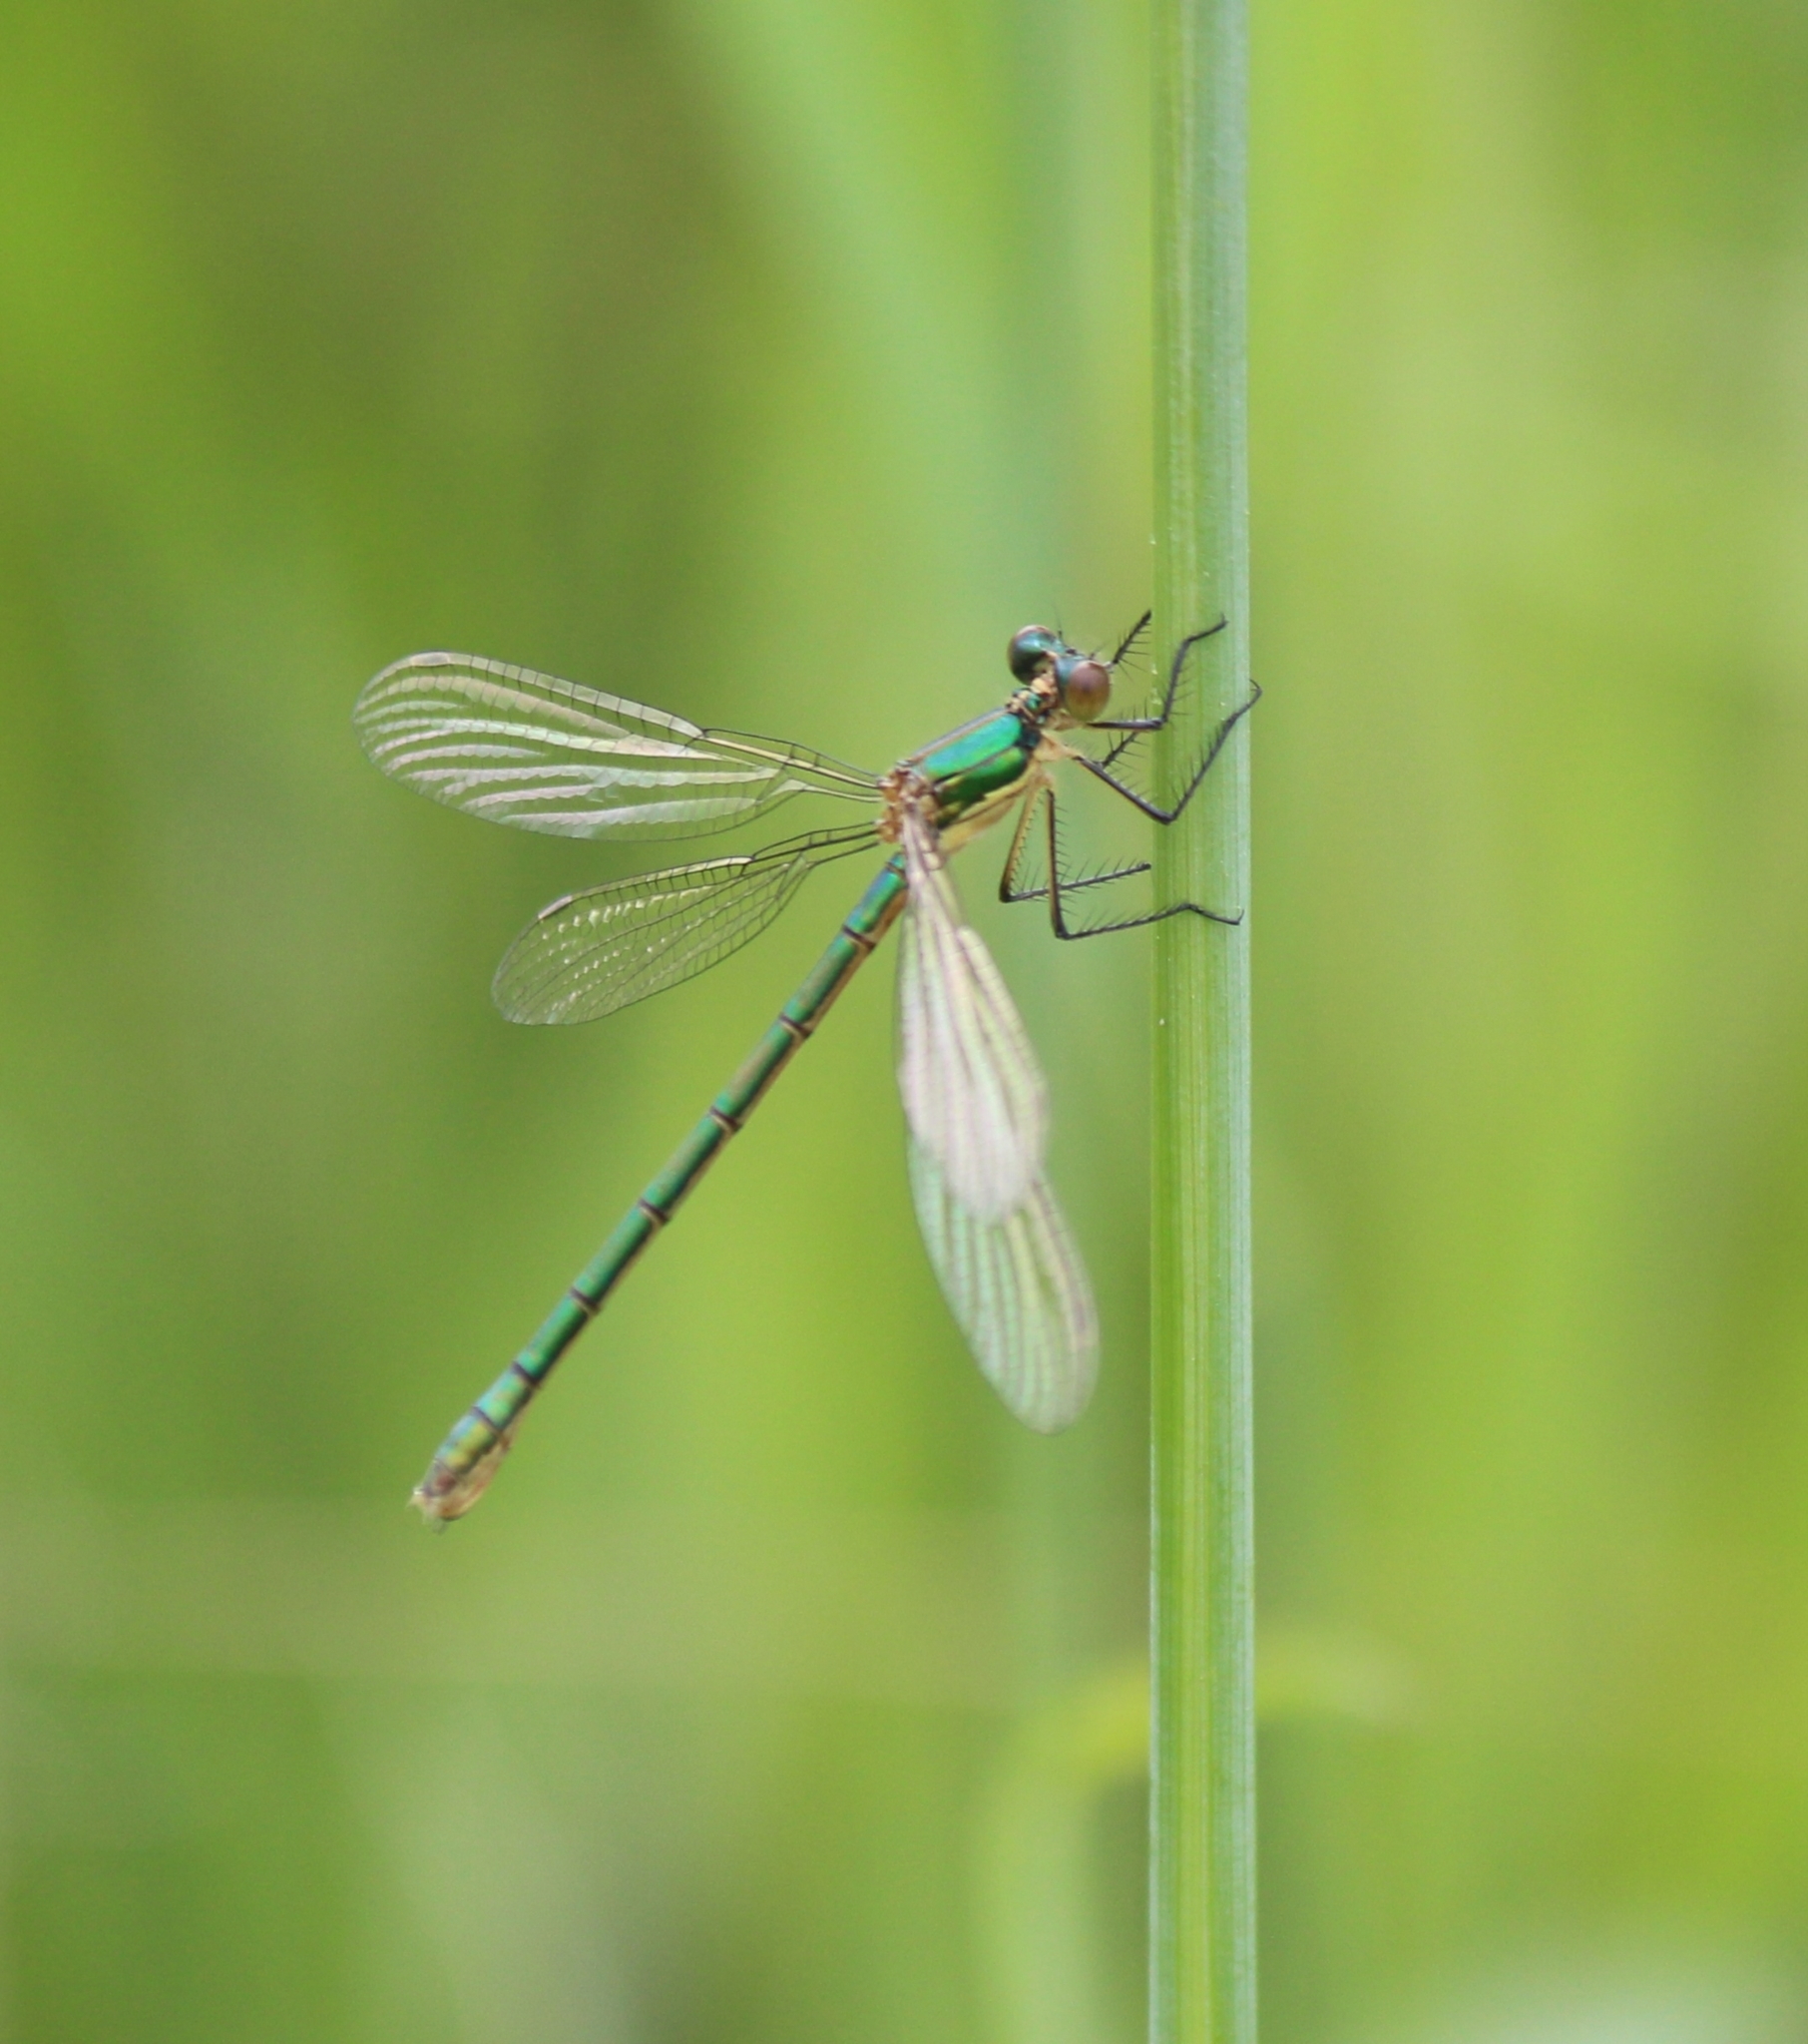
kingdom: Animalia
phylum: Arthropoda
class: Insecta
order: Odonata
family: Lestidae
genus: Lestes
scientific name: Lestes dryas
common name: Scarce emerald damselfly
